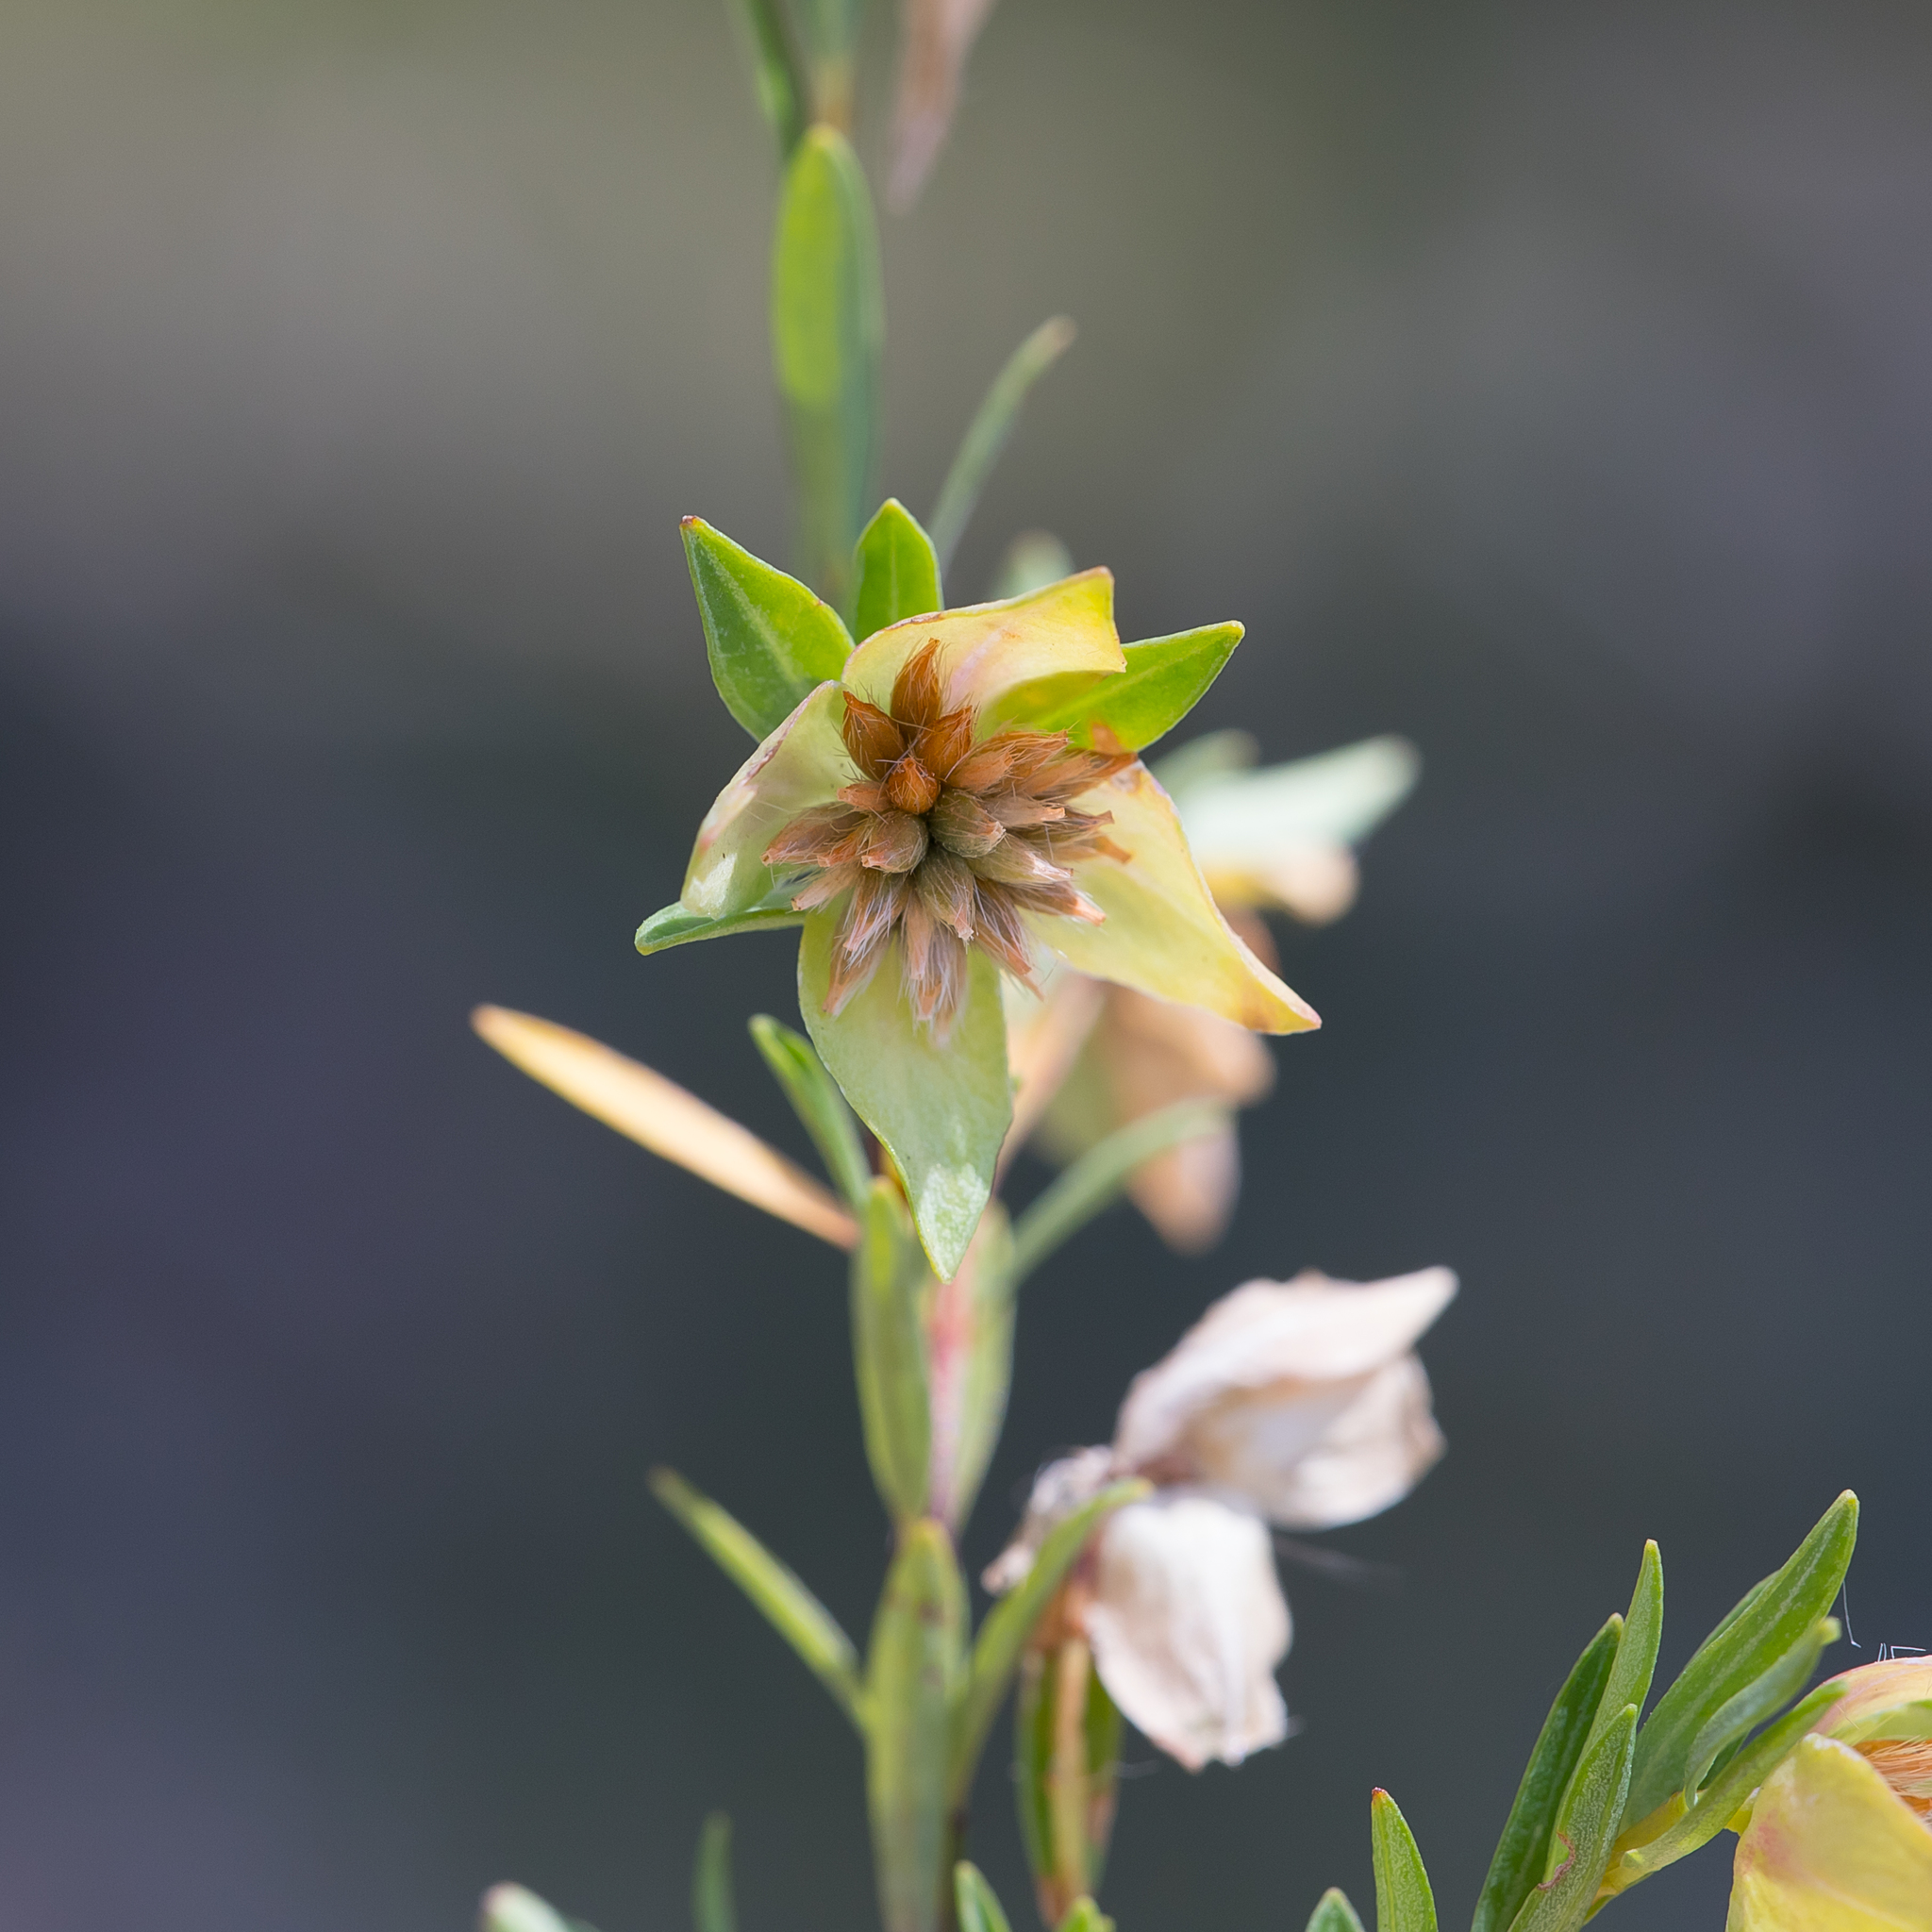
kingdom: Plantae
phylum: Tracheophyta
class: Magnoliopsida
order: Malvales
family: Thymelaeaceae
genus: Pimelea
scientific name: Pimelea linifolia
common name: Queen-of-the-bush
